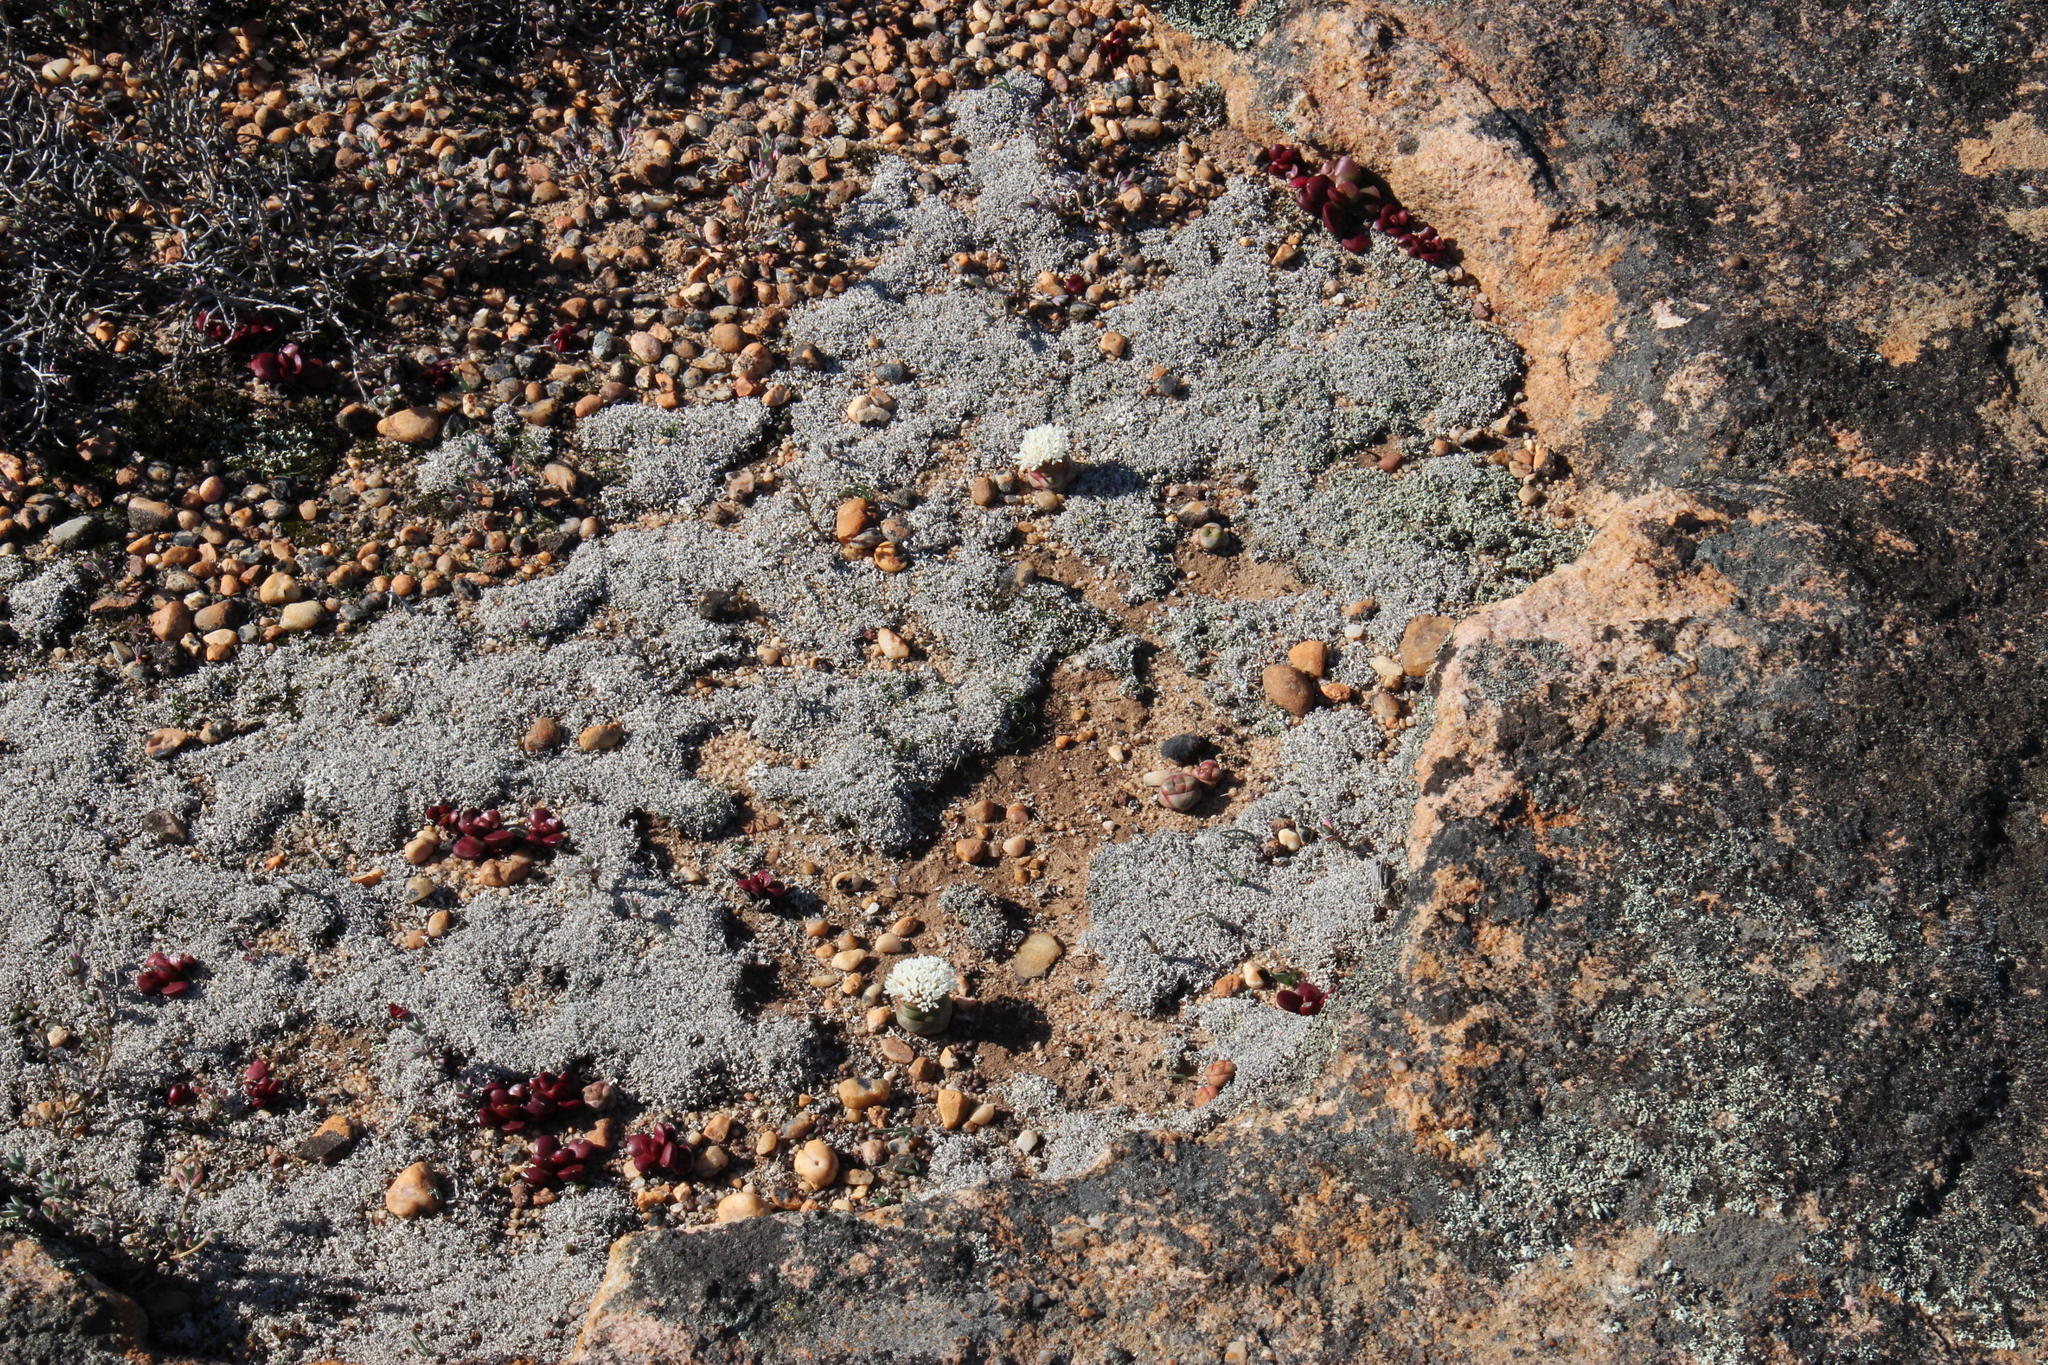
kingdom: Plantae
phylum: Tracheophyta
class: Magnoliopsida
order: Saxifragales
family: Crassulaceae
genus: Crassula
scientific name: Crassula columnaris
